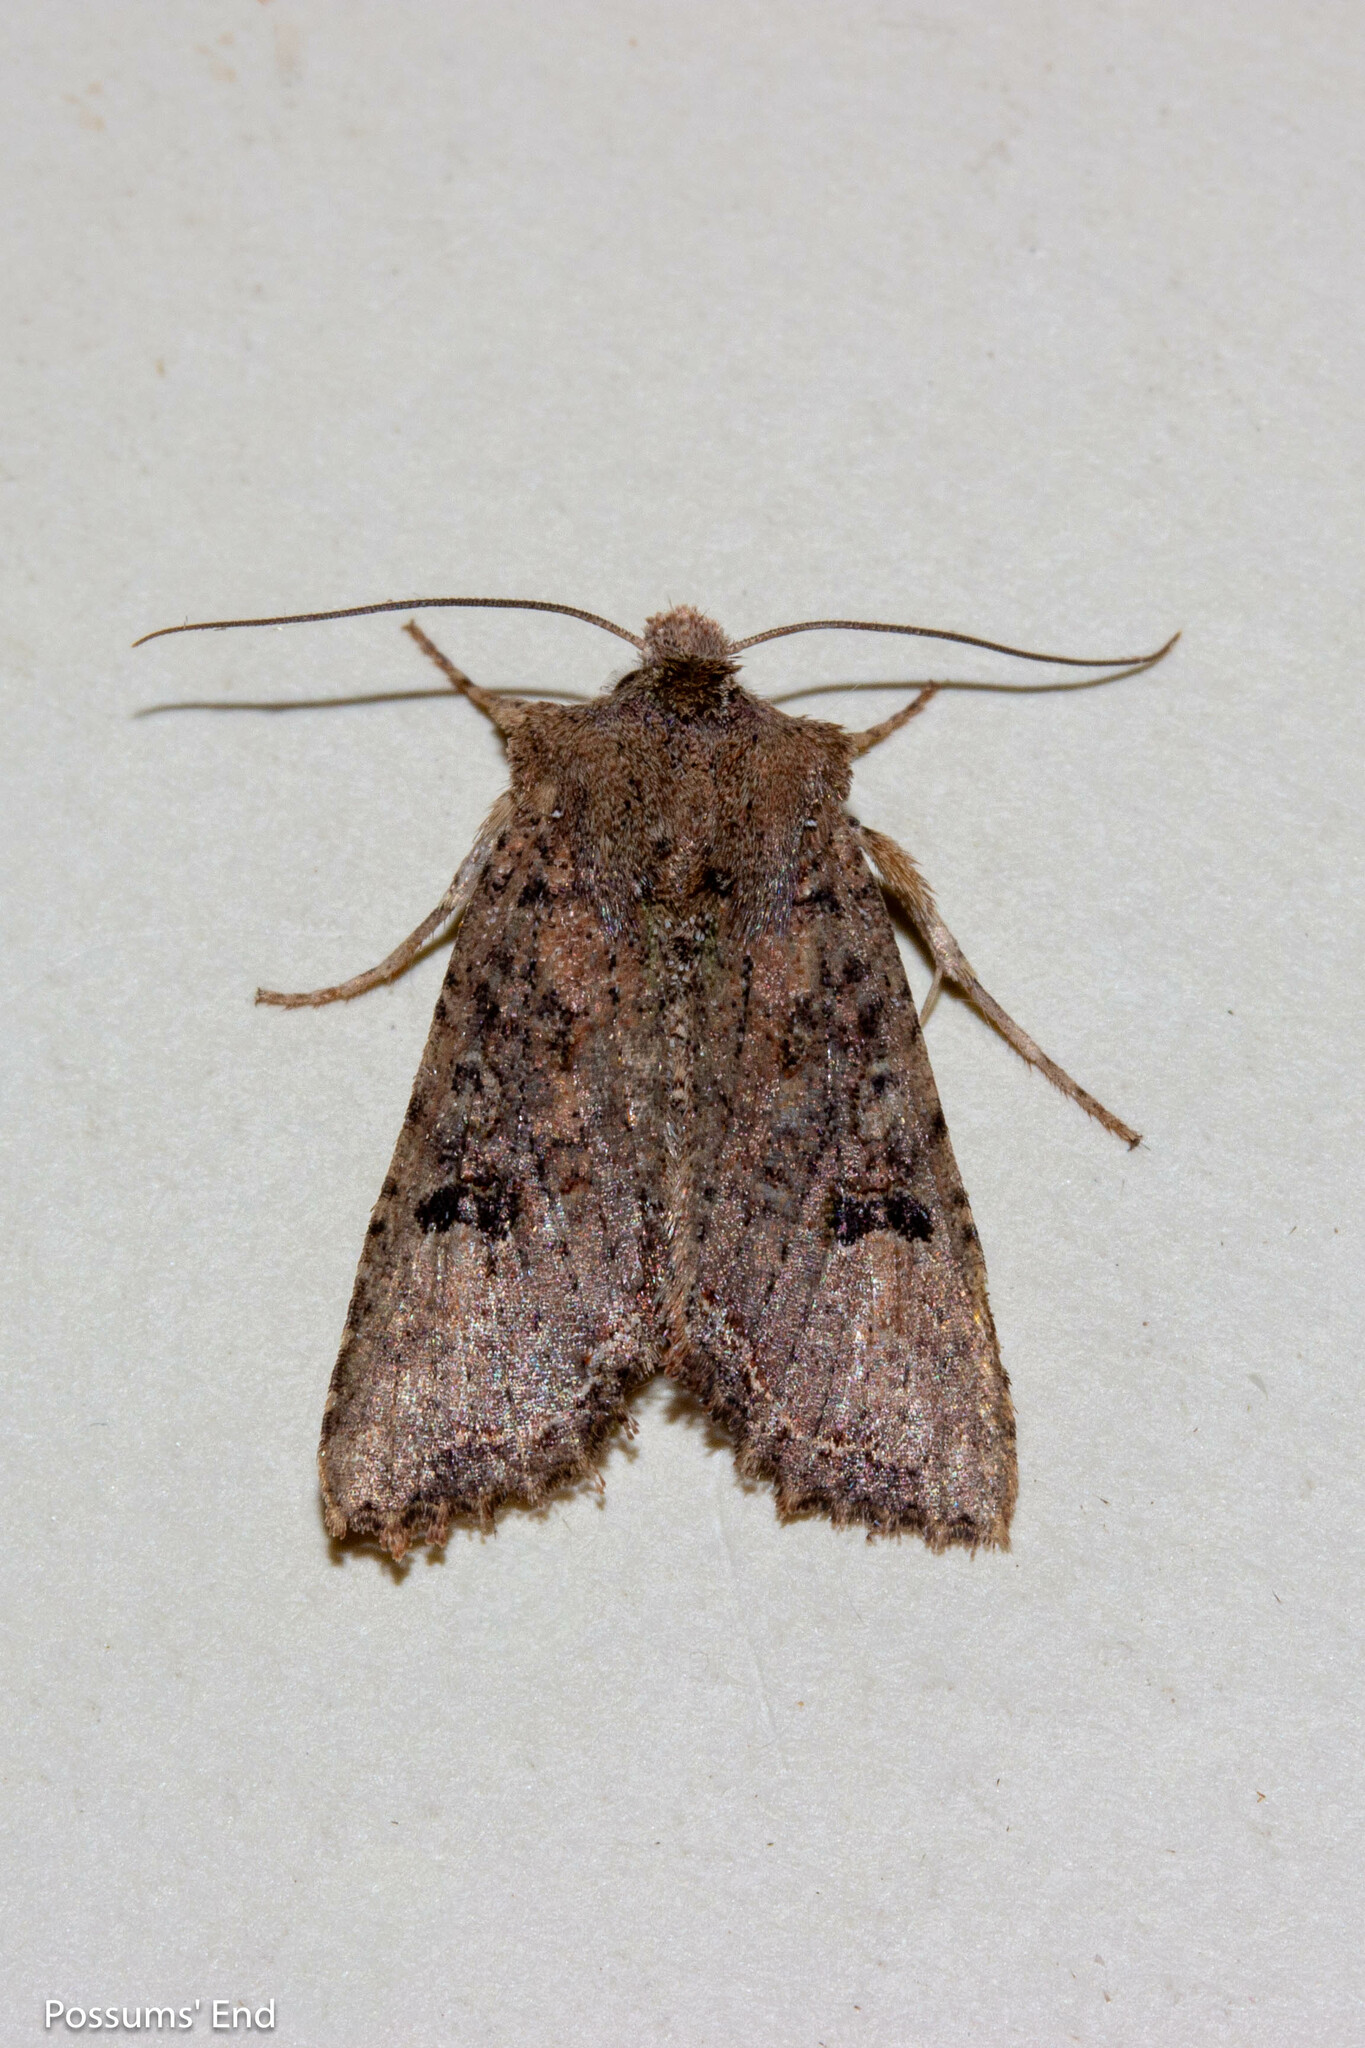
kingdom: Animalia
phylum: Arthropoda
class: Insecta
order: Lepidoptera
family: Noctuidae
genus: Meterana
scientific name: Meterana inchoata
